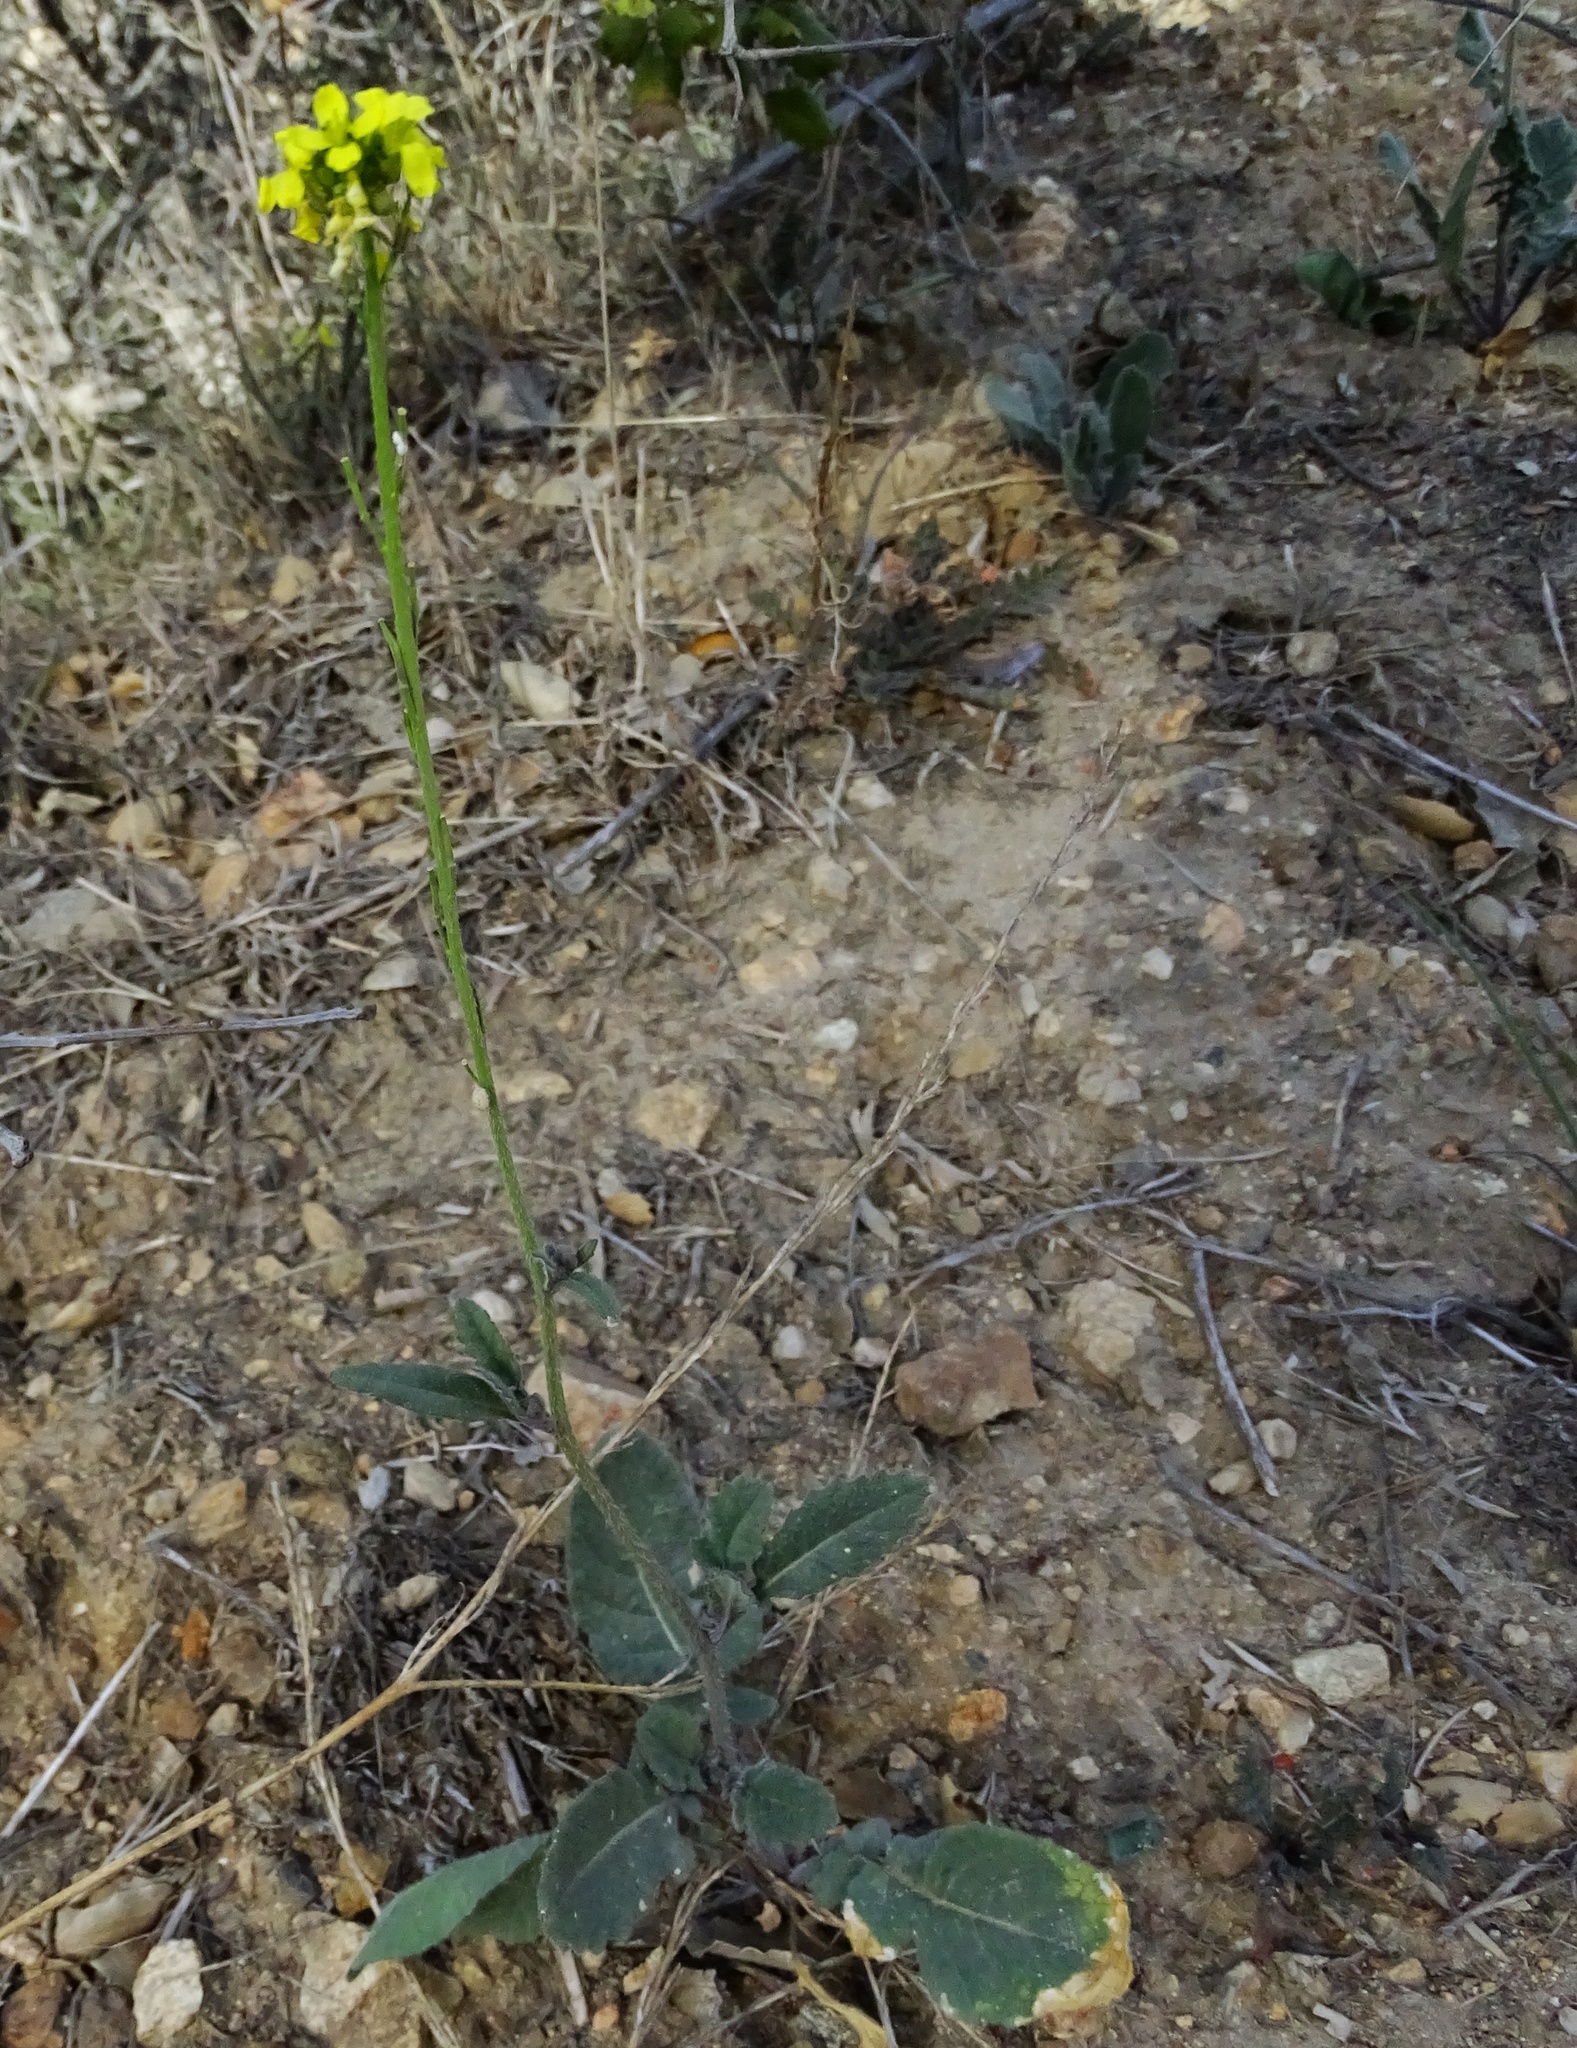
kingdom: Plantae
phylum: Tracheophyta
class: Magnoliopsida
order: Brassicales
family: Brassicaceae
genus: Hirschfeldia
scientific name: Hirschfeldia incana
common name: Hoary mustard
